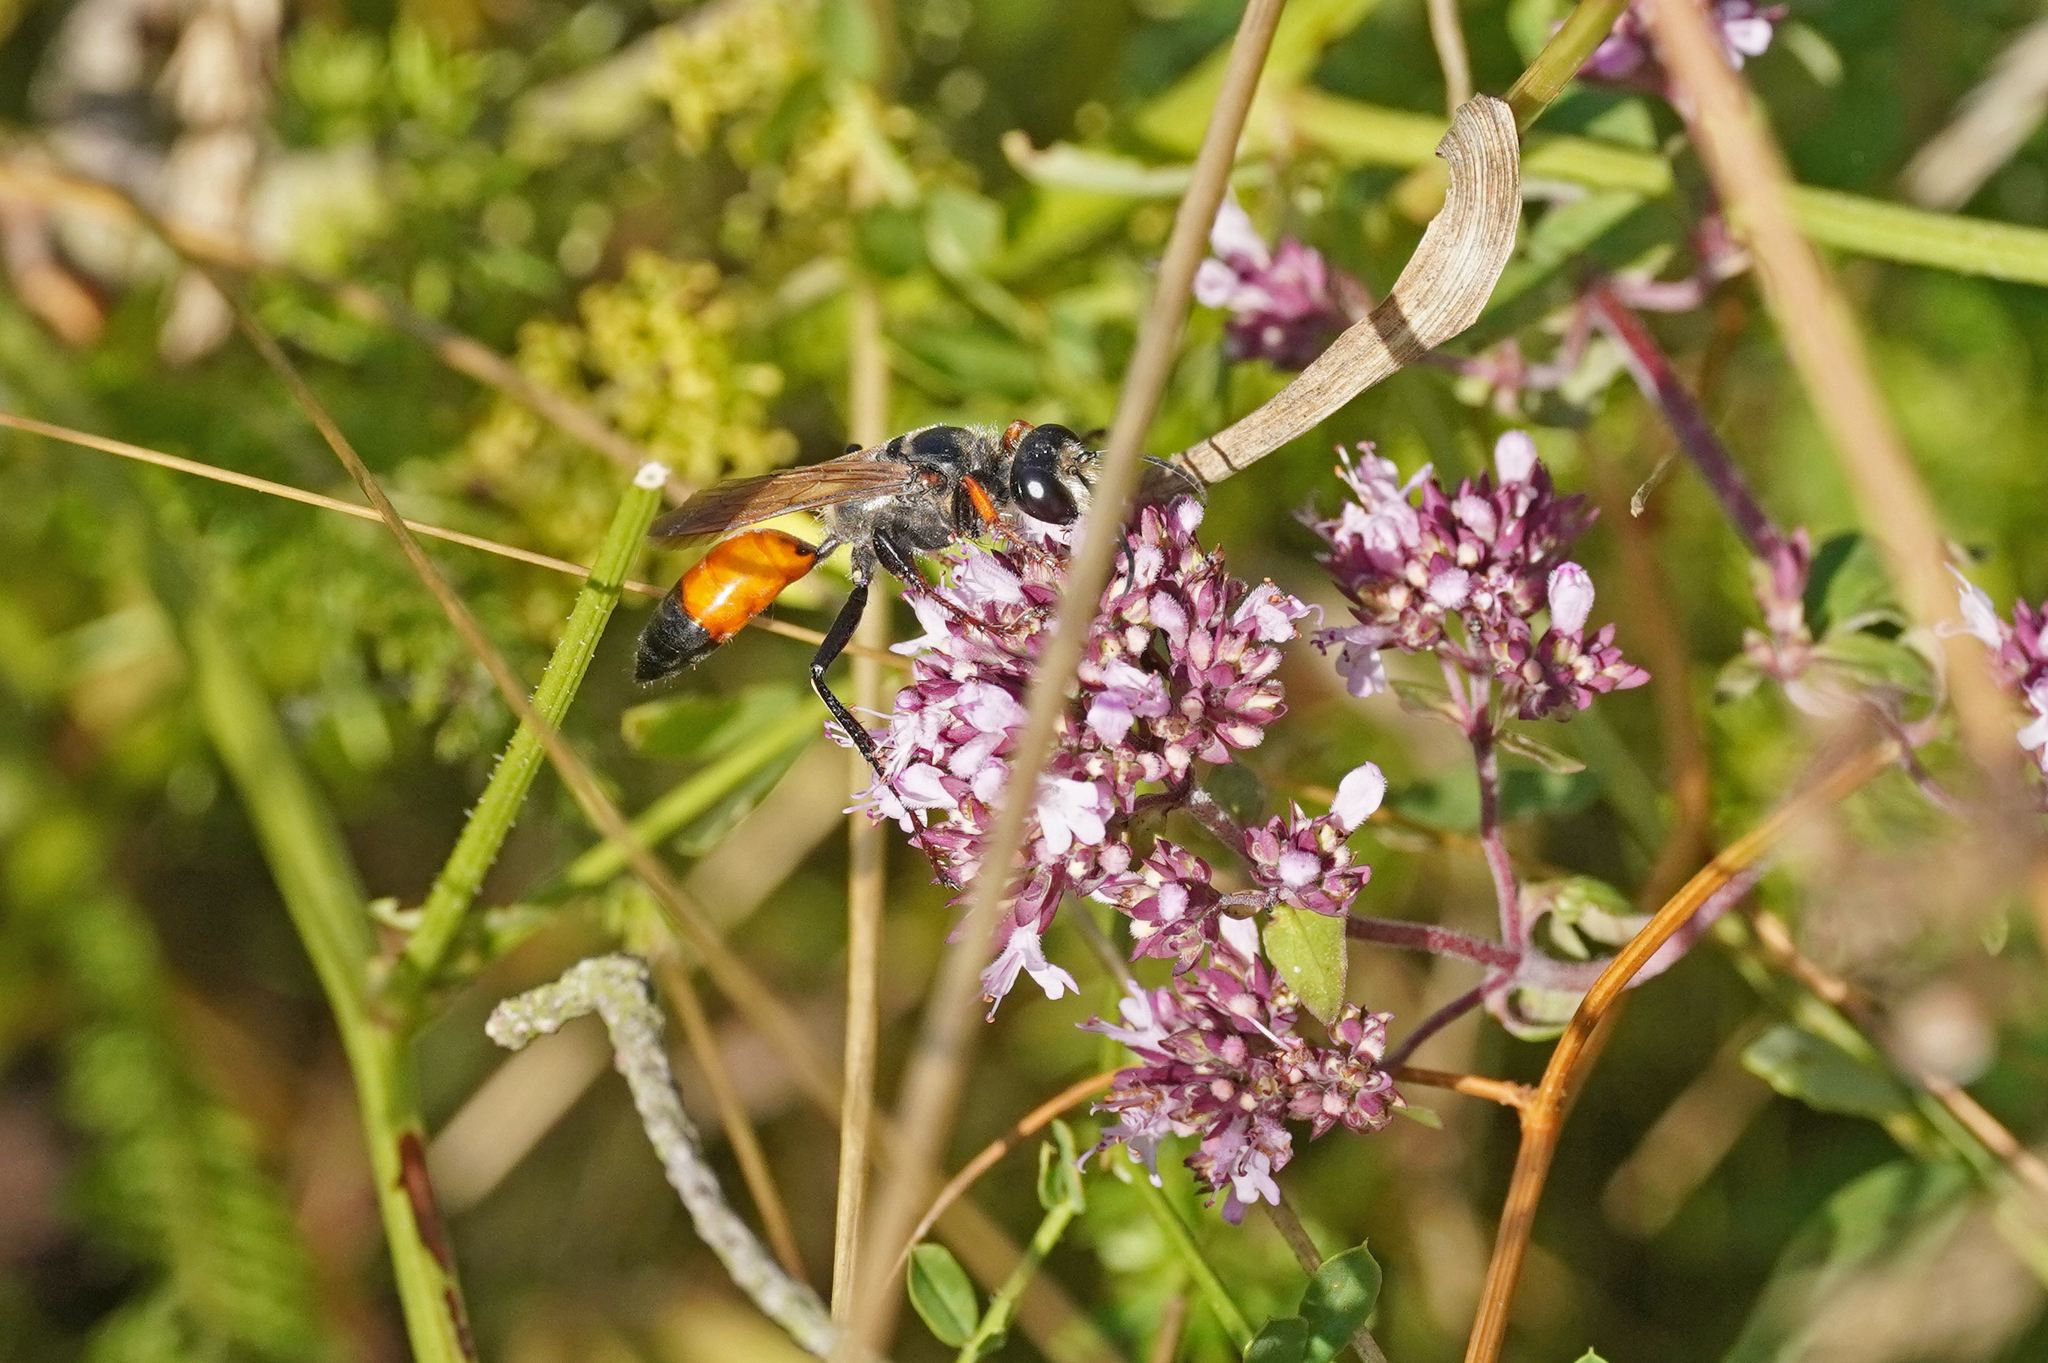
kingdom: Animalia
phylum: Arthropoda
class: Insecta
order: Hymenoptera
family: Sphecidae
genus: Sphex
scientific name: Sphex funerarius
